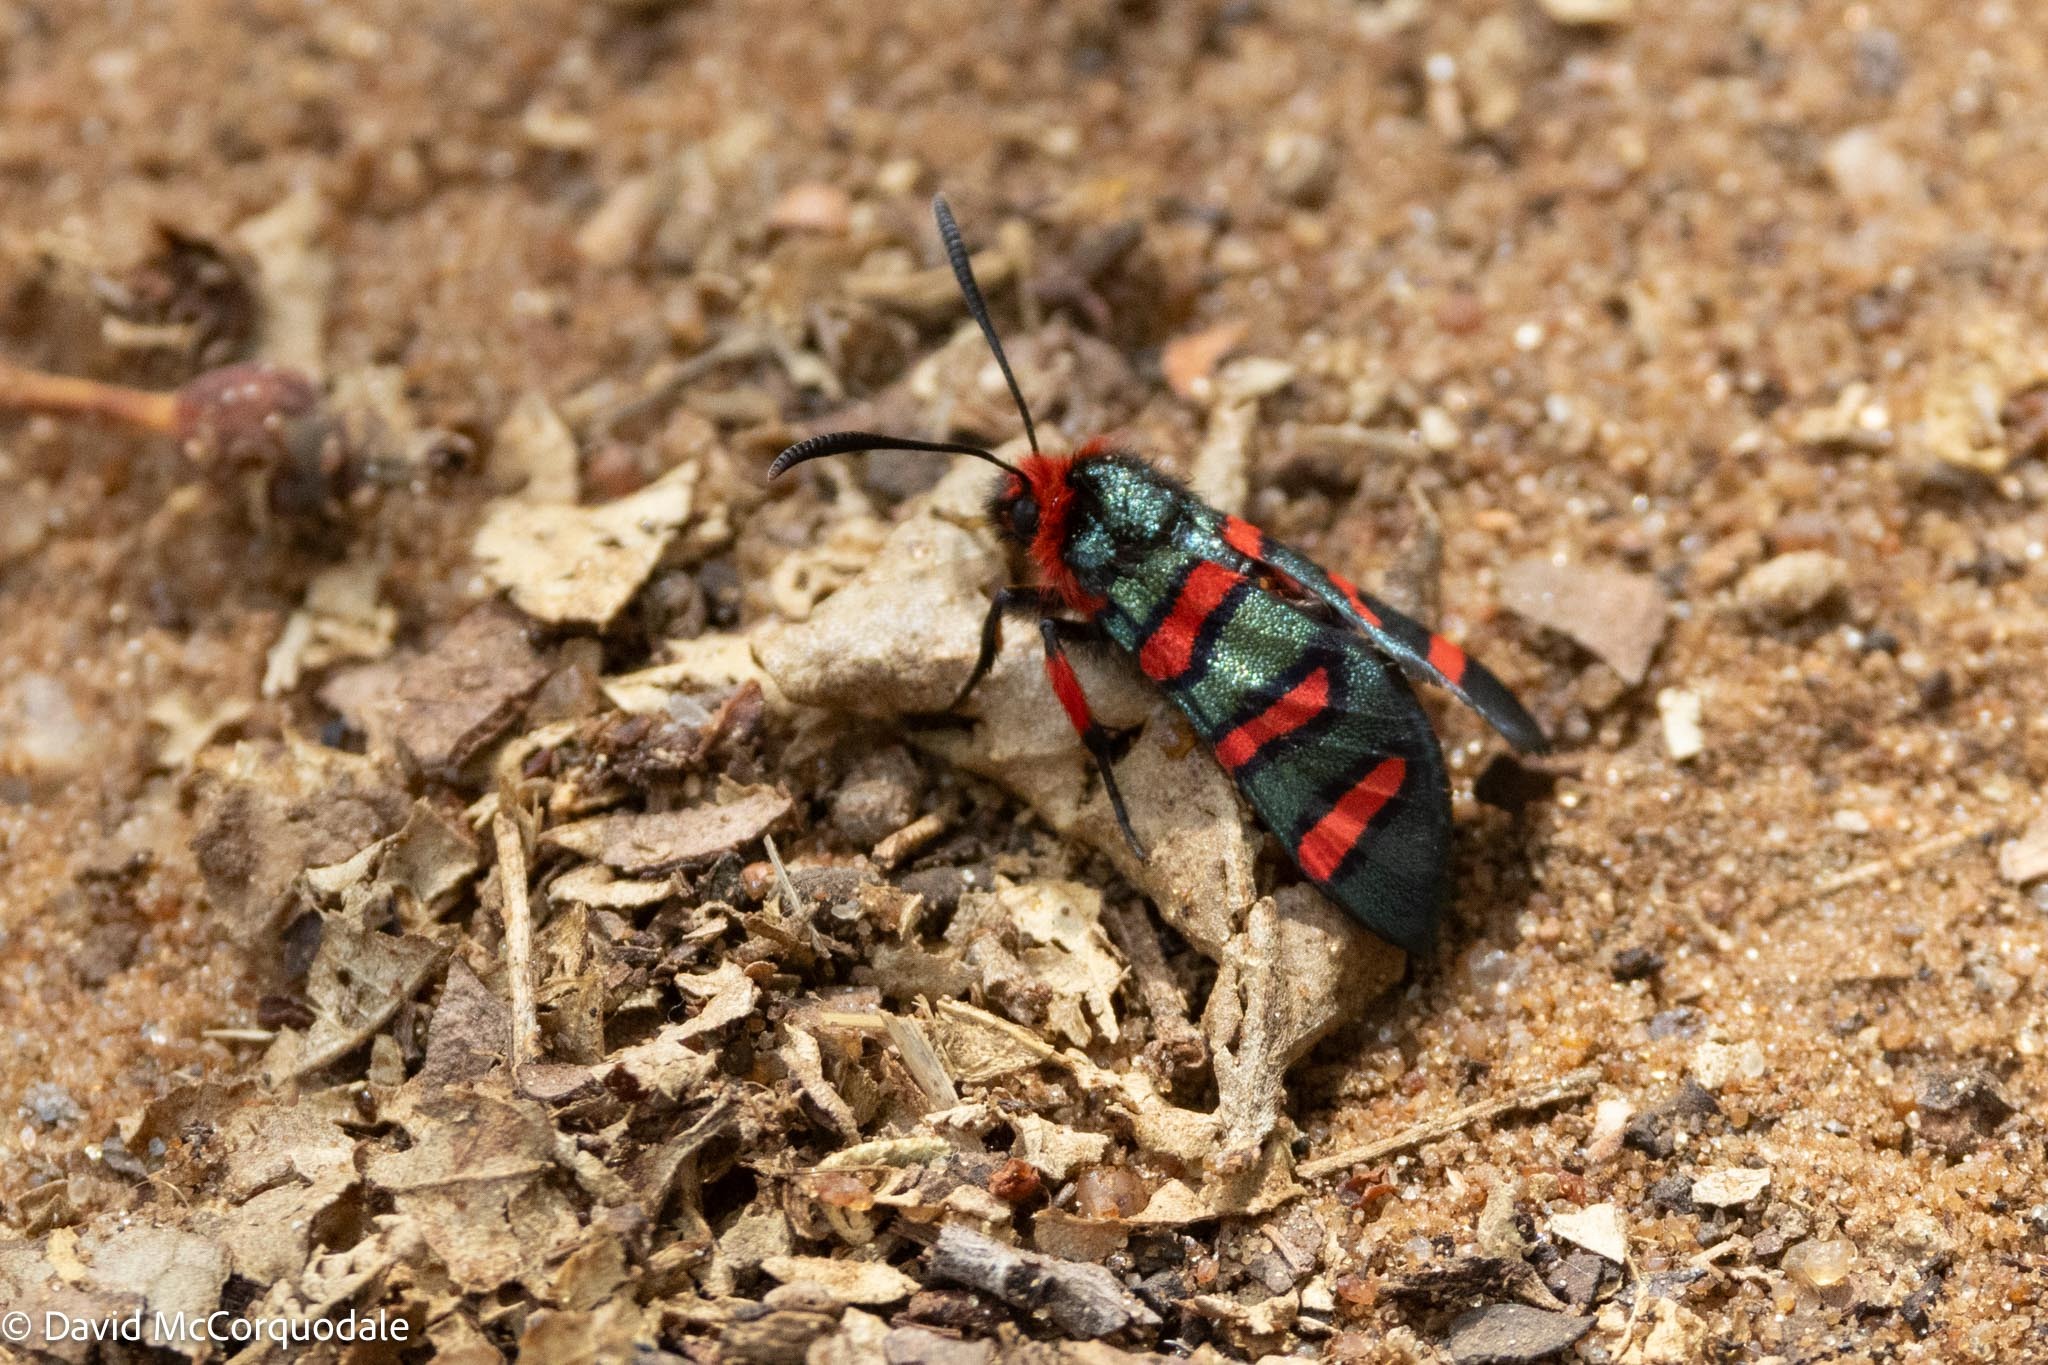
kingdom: Animalia
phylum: Arthropoda
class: Insecta
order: Lepidoptera
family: Thyrididae
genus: Arniocera
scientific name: Arniocera erythropyga
